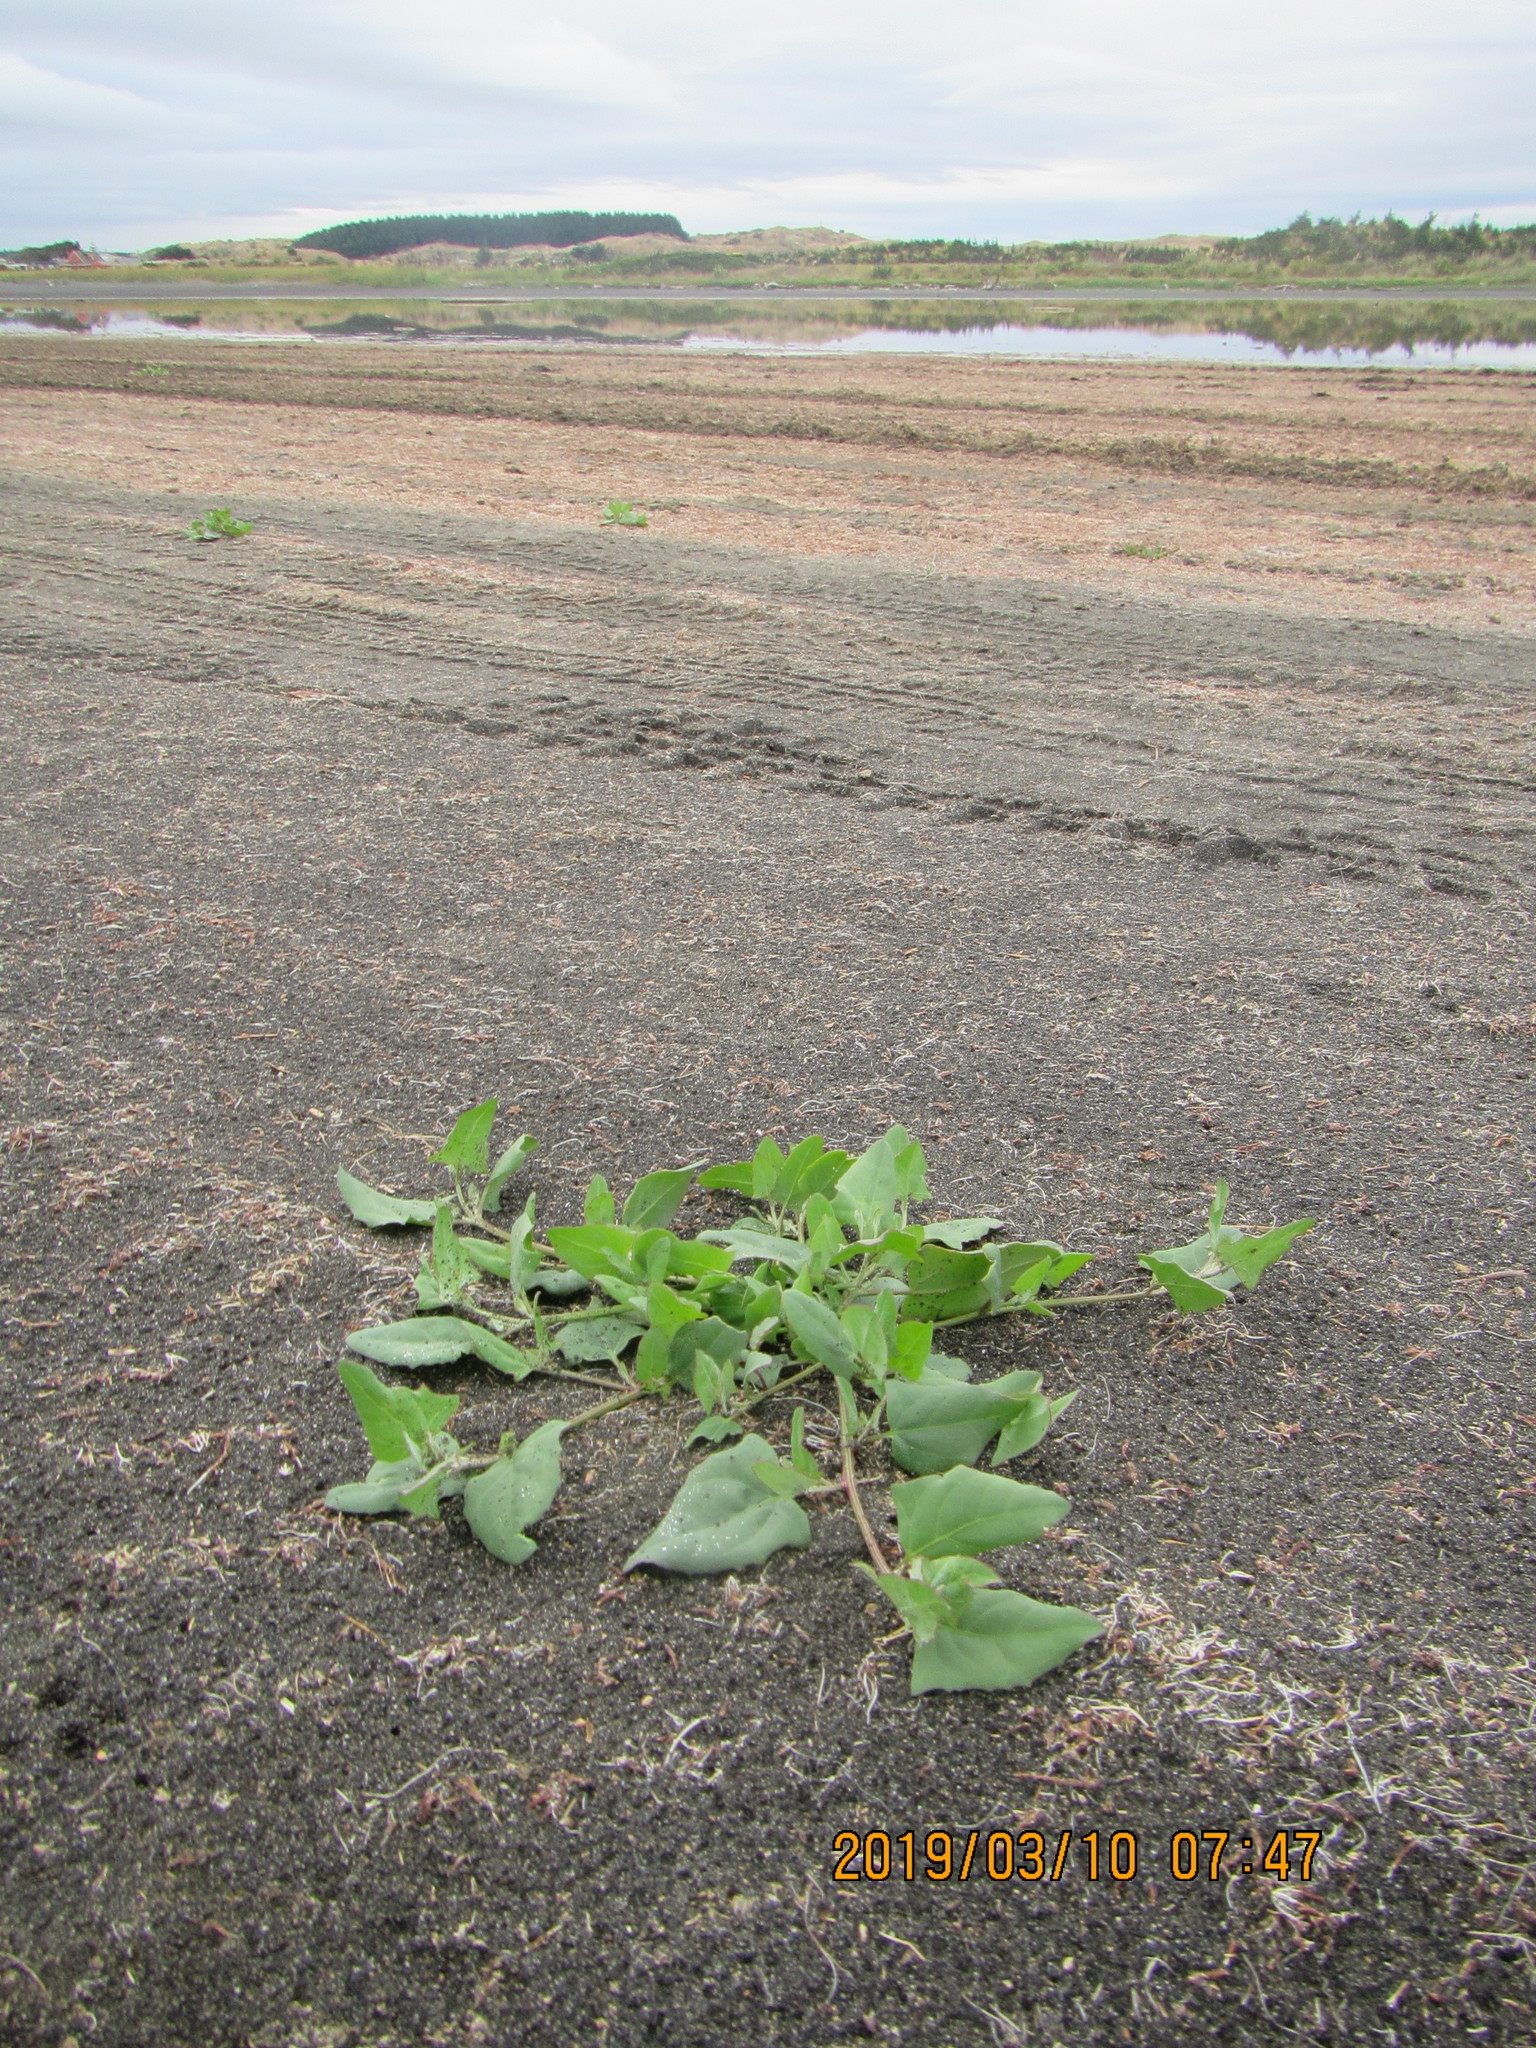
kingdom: Plantae
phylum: Tracheophyta
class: Magnoliopsida
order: Caryophyllales
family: Amaranthaceae
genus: Atriplex
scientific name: Atriplex prostrata
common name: Spear-leaved orache
